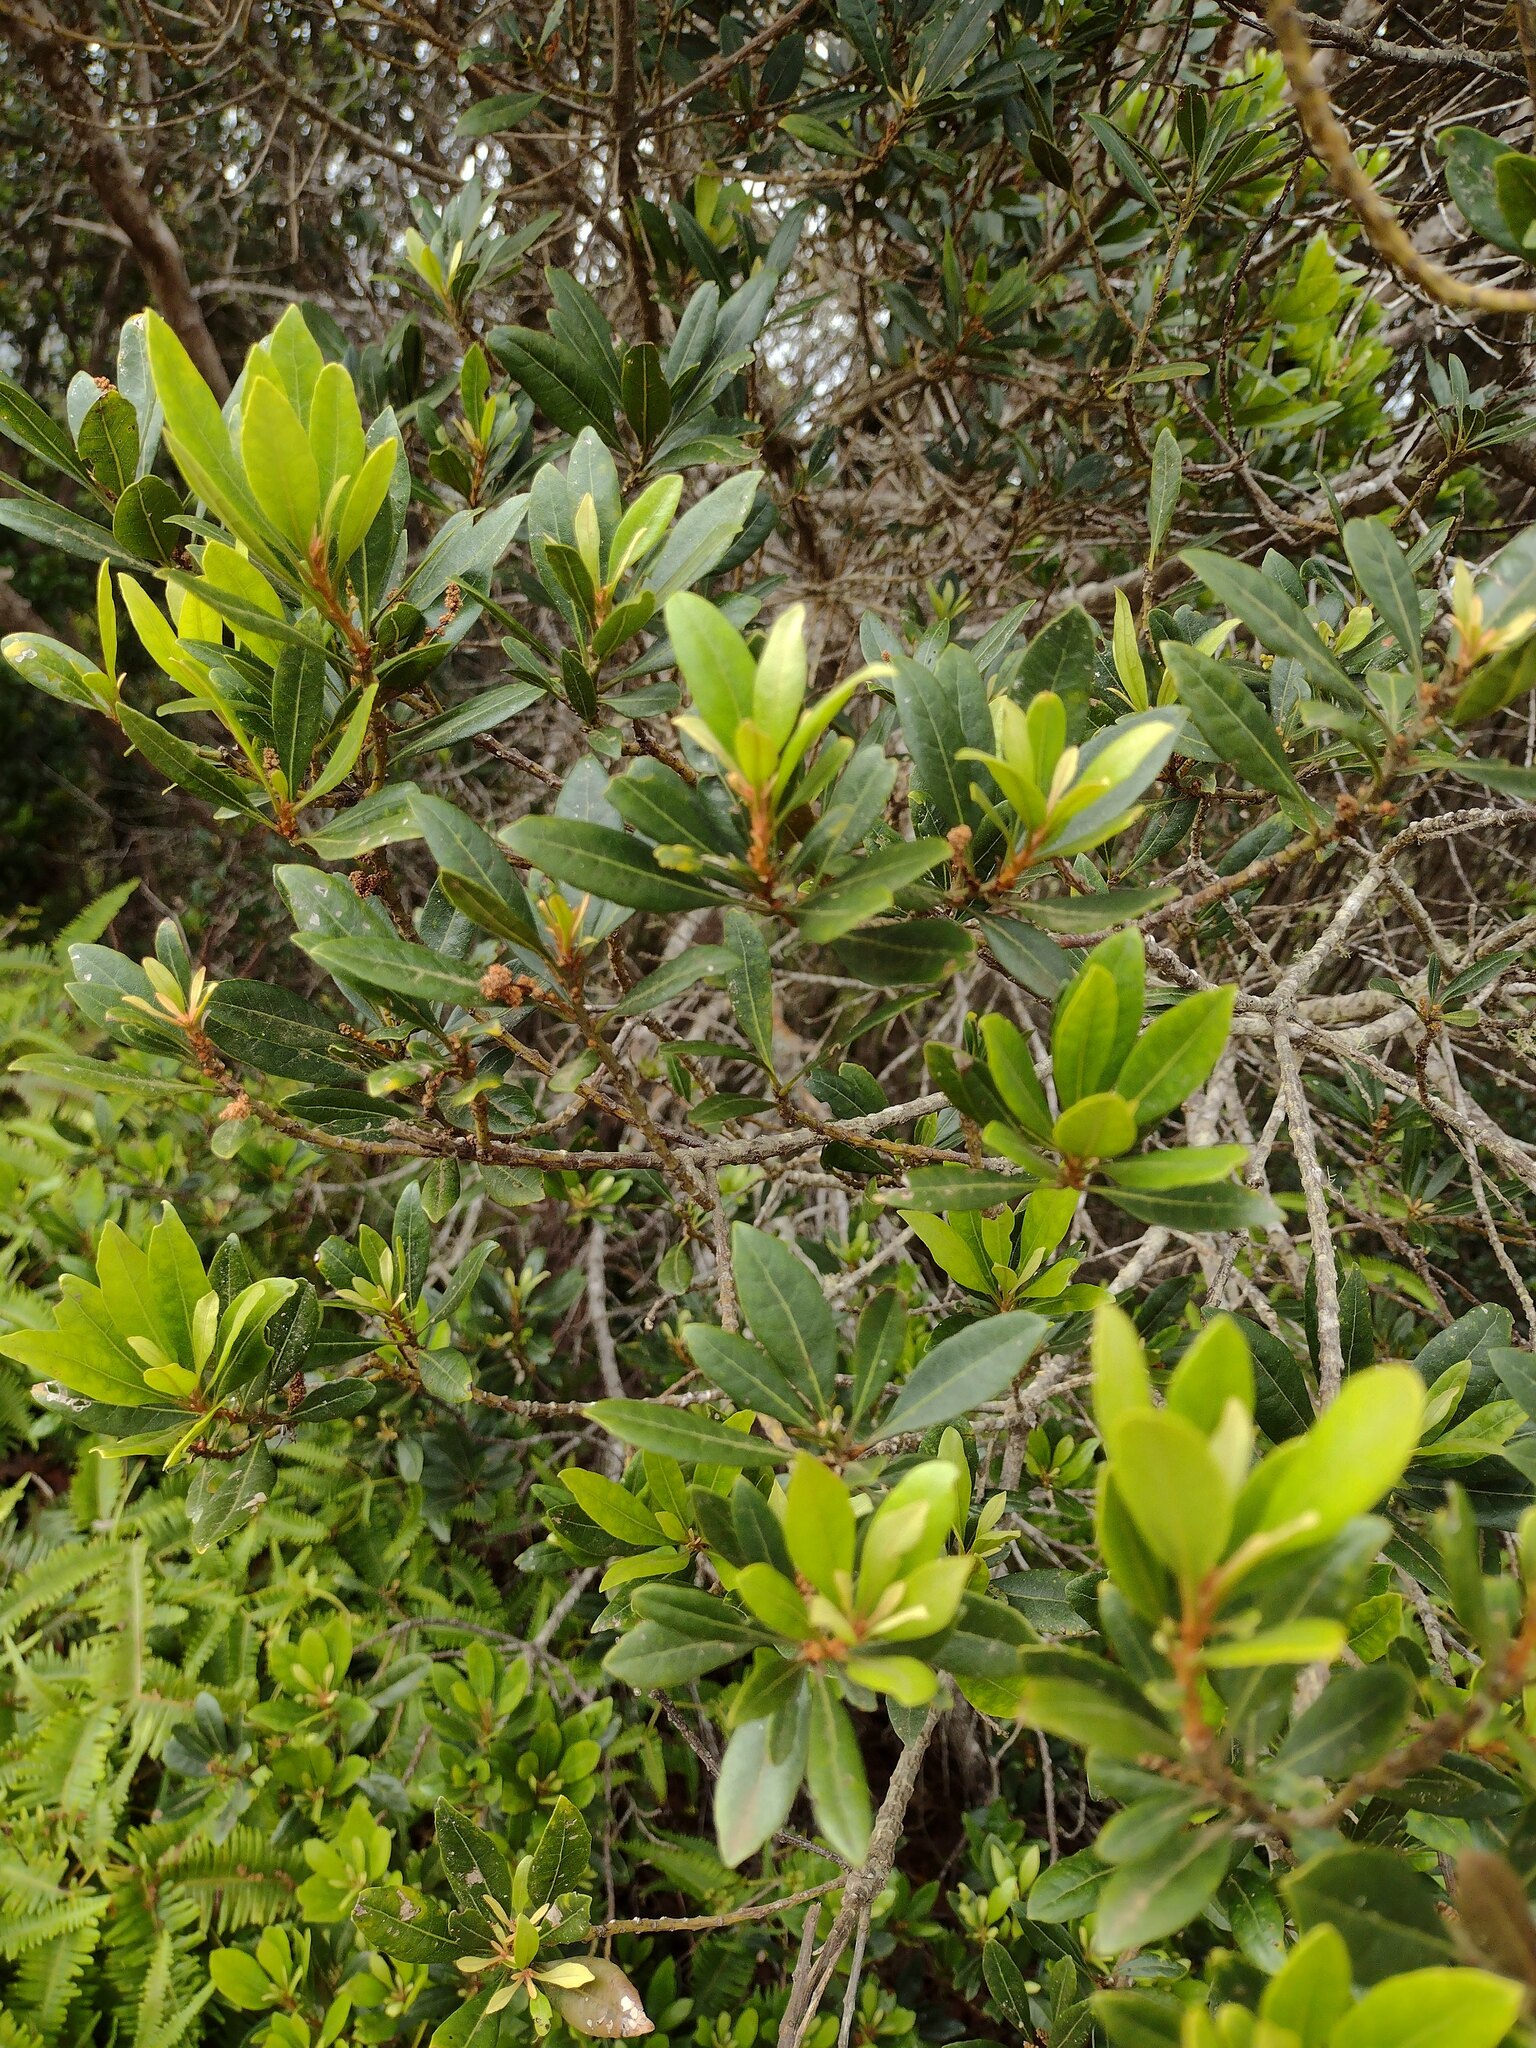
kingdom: Plantae
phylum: Tracheophyta
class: Magnoliopsida
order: Fagales
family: Myricaceae
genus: Morella
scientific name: Morella faya
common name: Firetree
